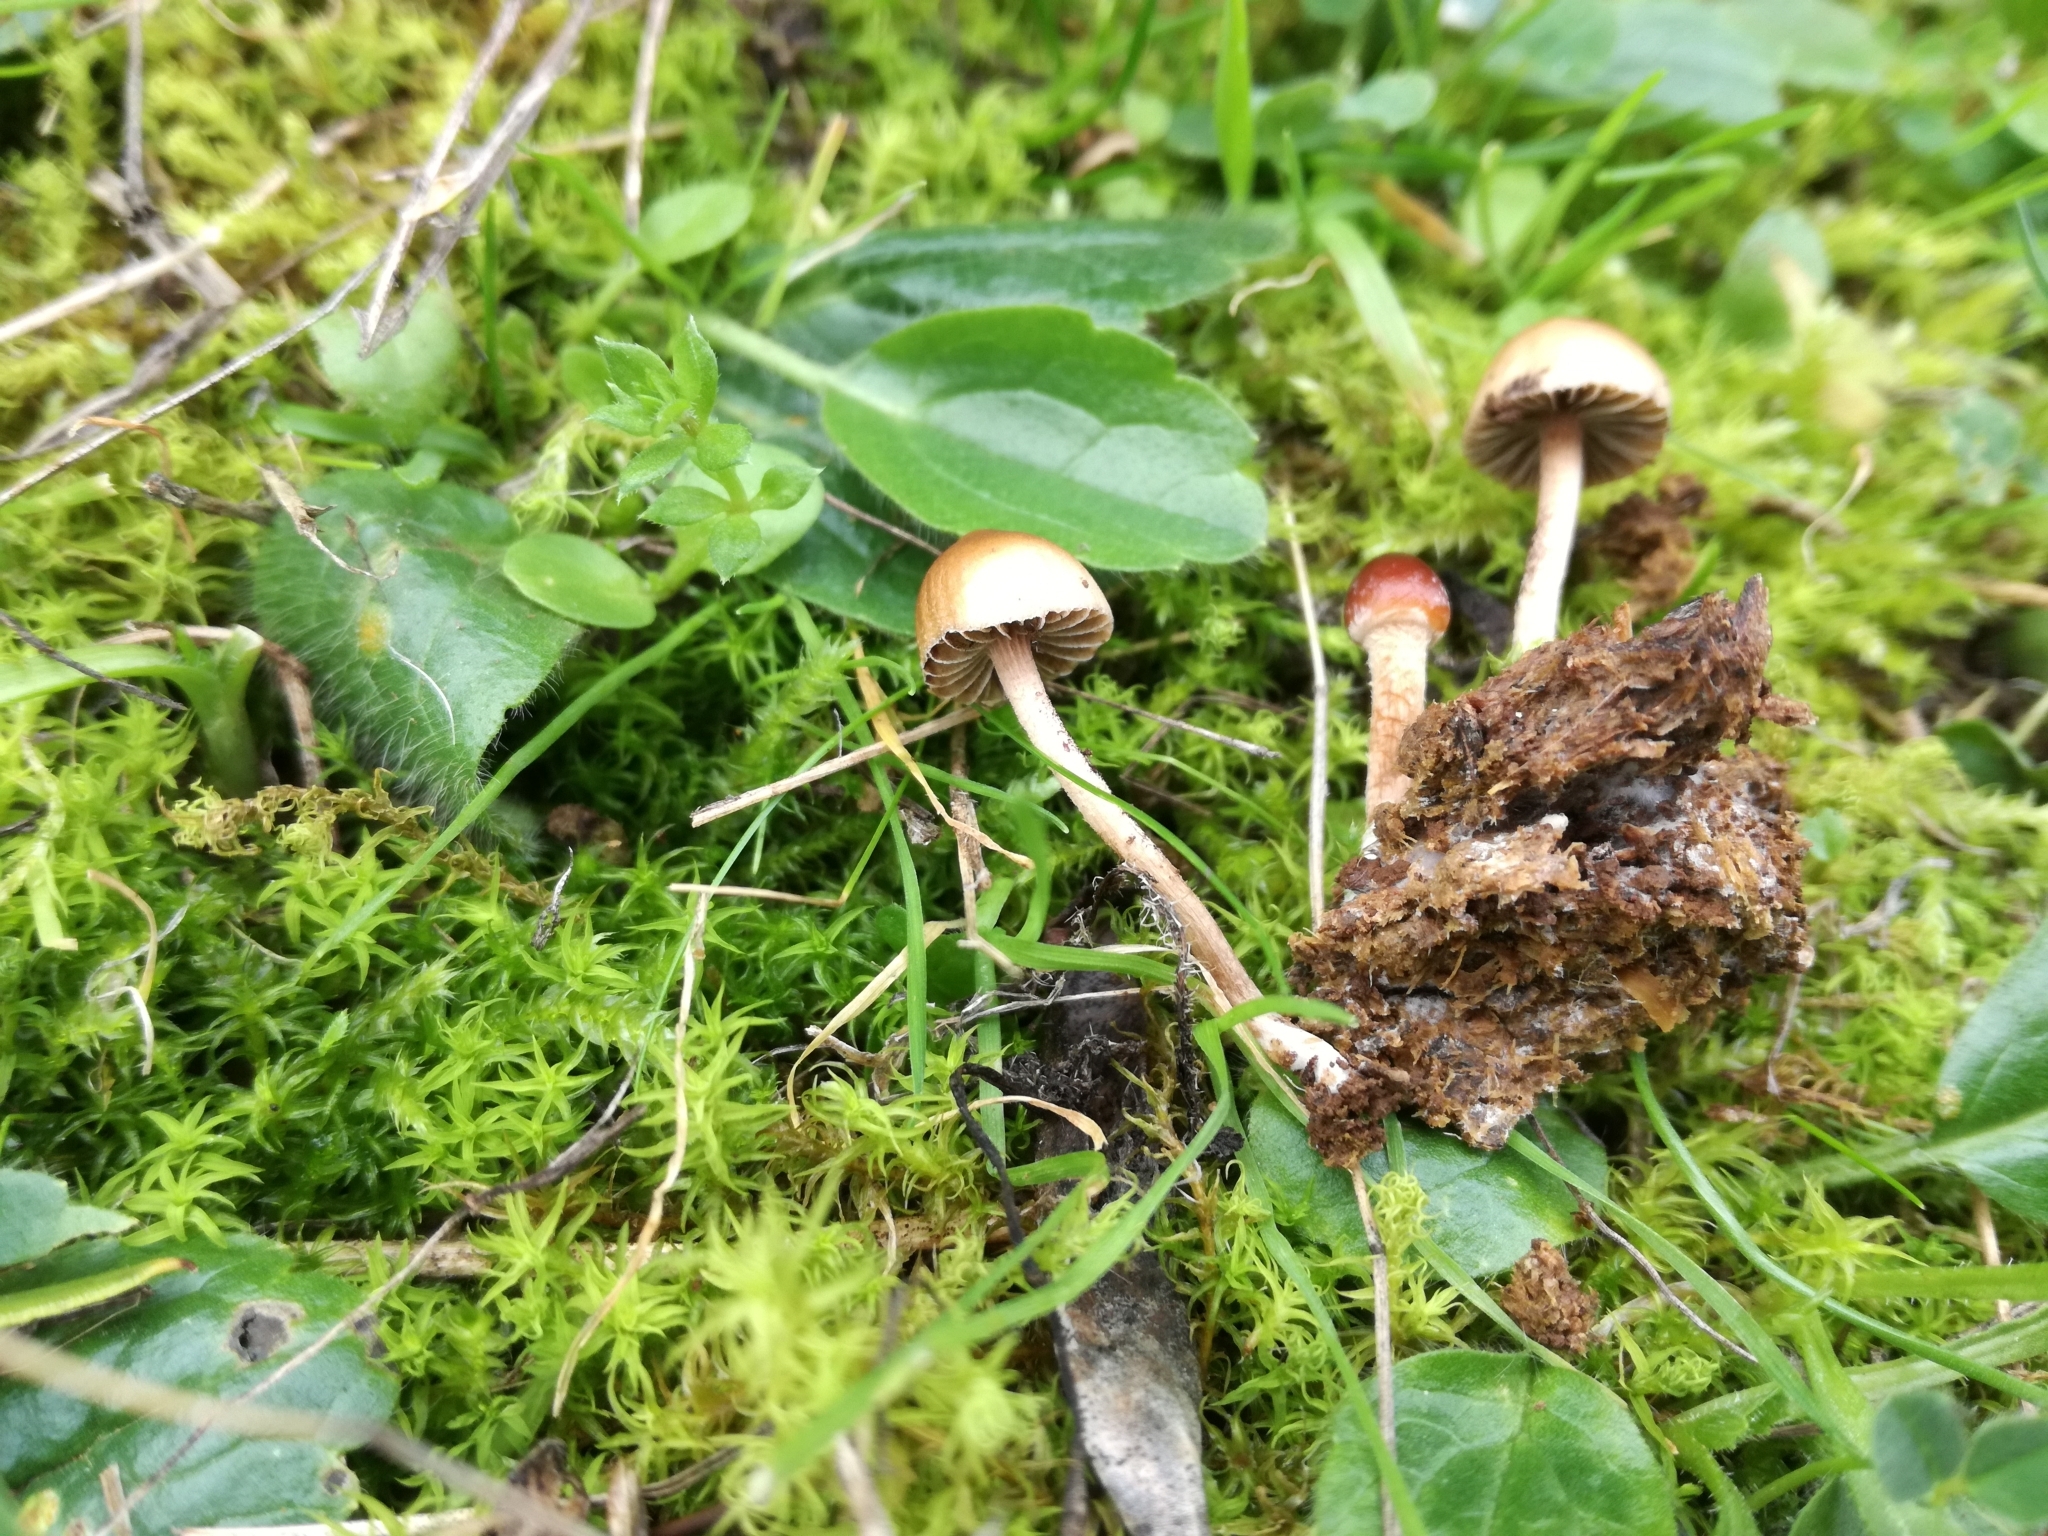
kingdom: Fungi
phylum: Basidiomycota
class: Agaricomycetes
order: Agaricales
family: Strophariaceae
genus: Deconica
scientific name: Deconica coprophila
